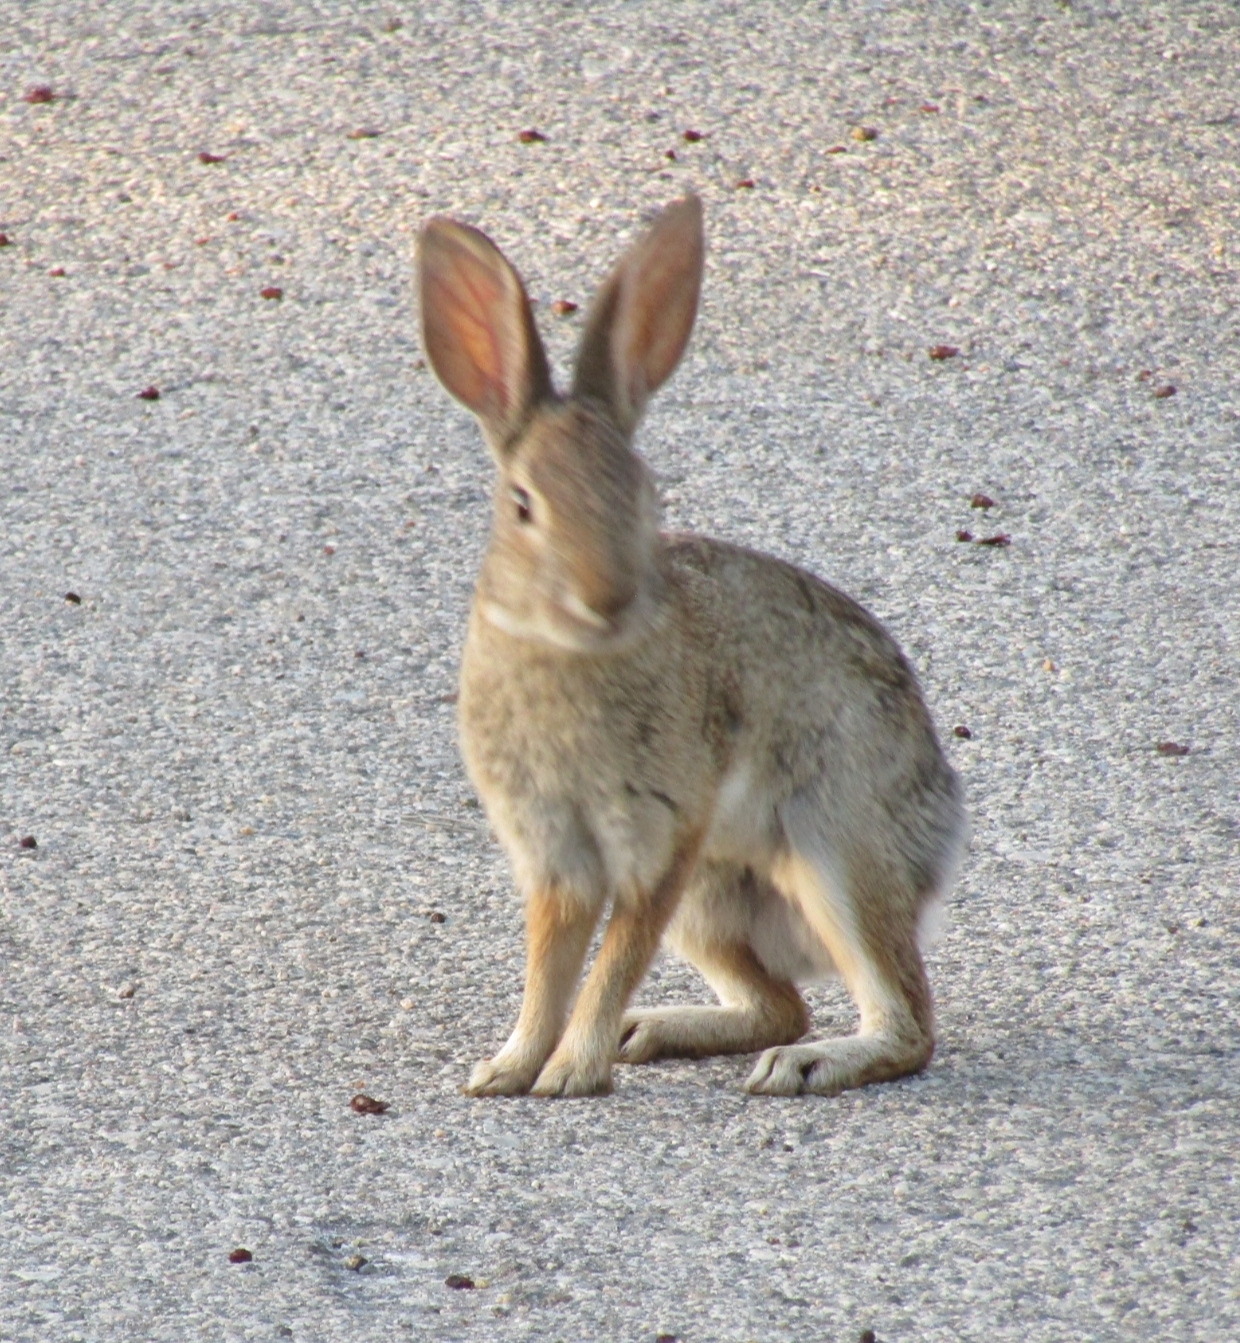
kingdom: Animalia
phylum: Chordata
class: Mammalia
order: Lagomorpha
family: Leporidae
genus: Sylvilagus
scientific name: Sylvilagus audubonii
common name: Desert cottontail
